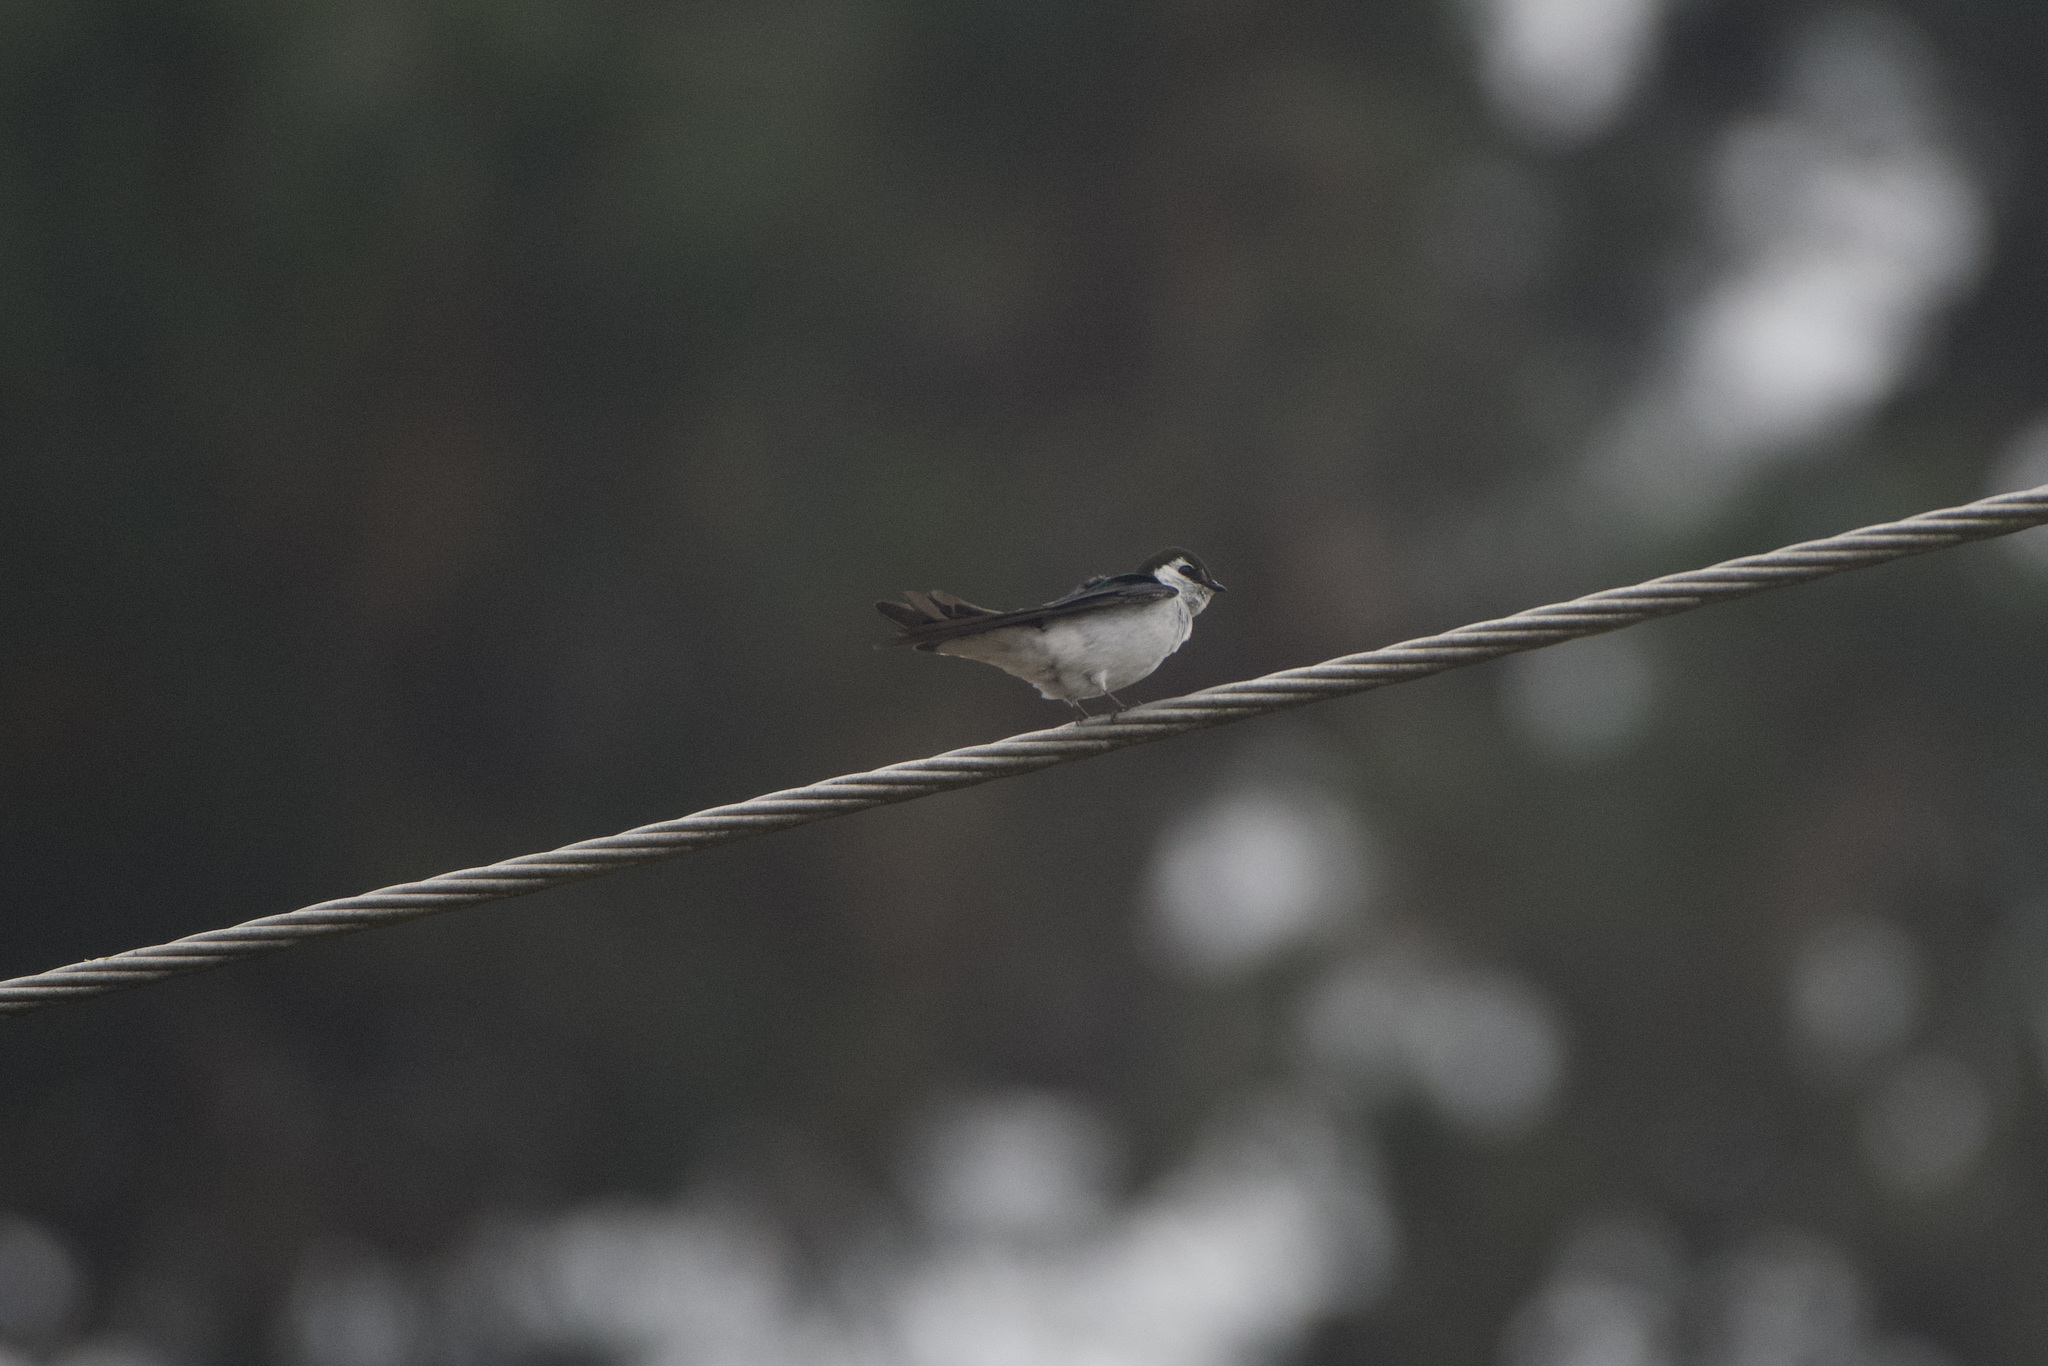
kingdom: Animalia
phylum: Chordata
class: Aves
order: Passeriformes
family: Hirundinidae
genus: Tachycineta
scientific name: Tachycineta thalassina
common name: Violet-green swallow
